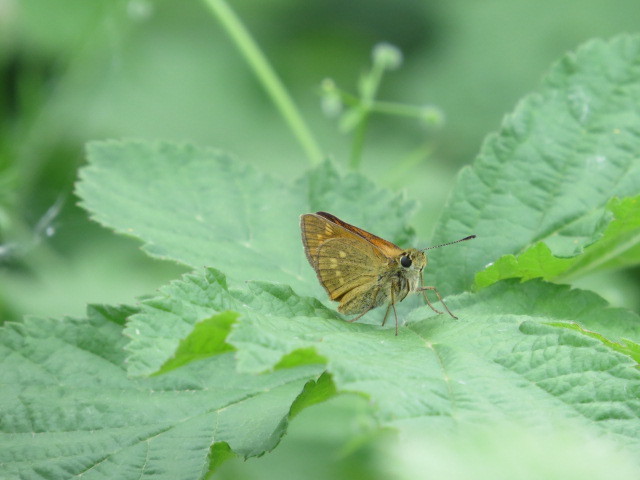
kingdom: Animalia
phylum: Arthropoda
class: Insecta
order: Lepidoptera
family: Hesperiidae
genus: Ochlodes
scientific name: Ochlodes venata
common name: Large skipper
